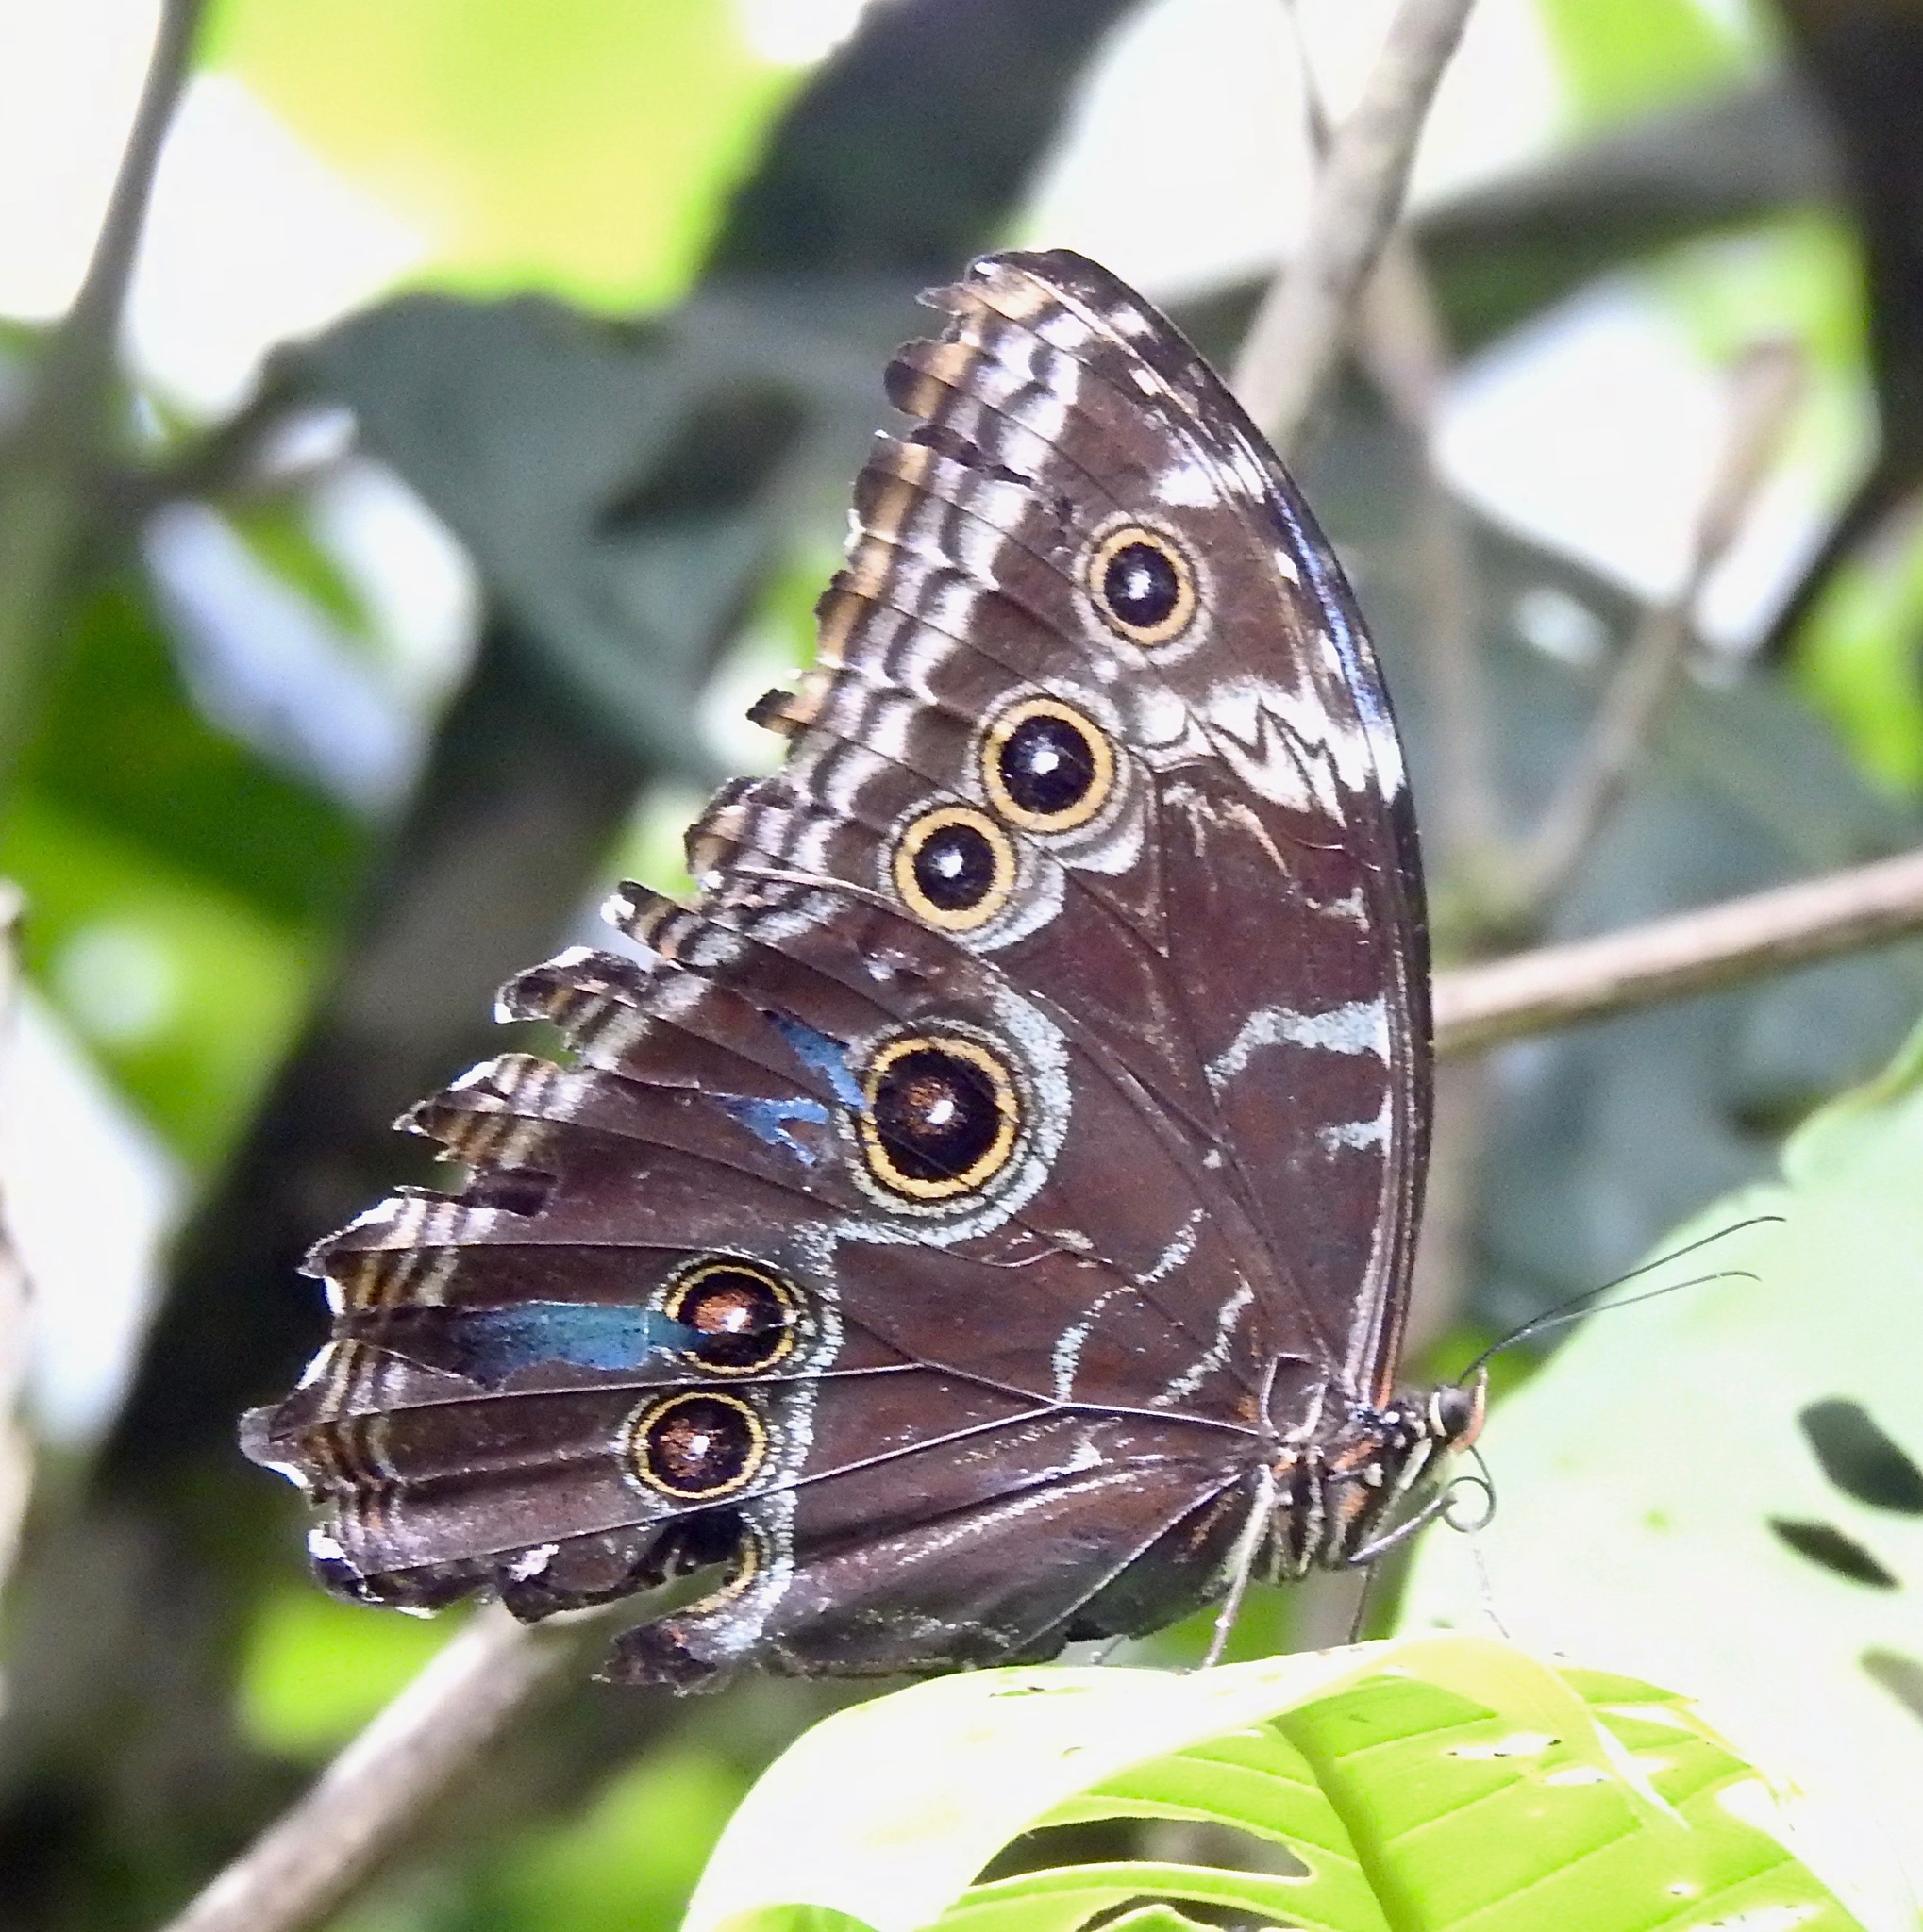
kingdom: Animalia
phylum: Arthropoda
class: Insecta
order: Lepidoptera
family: Nymphalidae
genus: Morpho
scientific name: Morpho helenor
